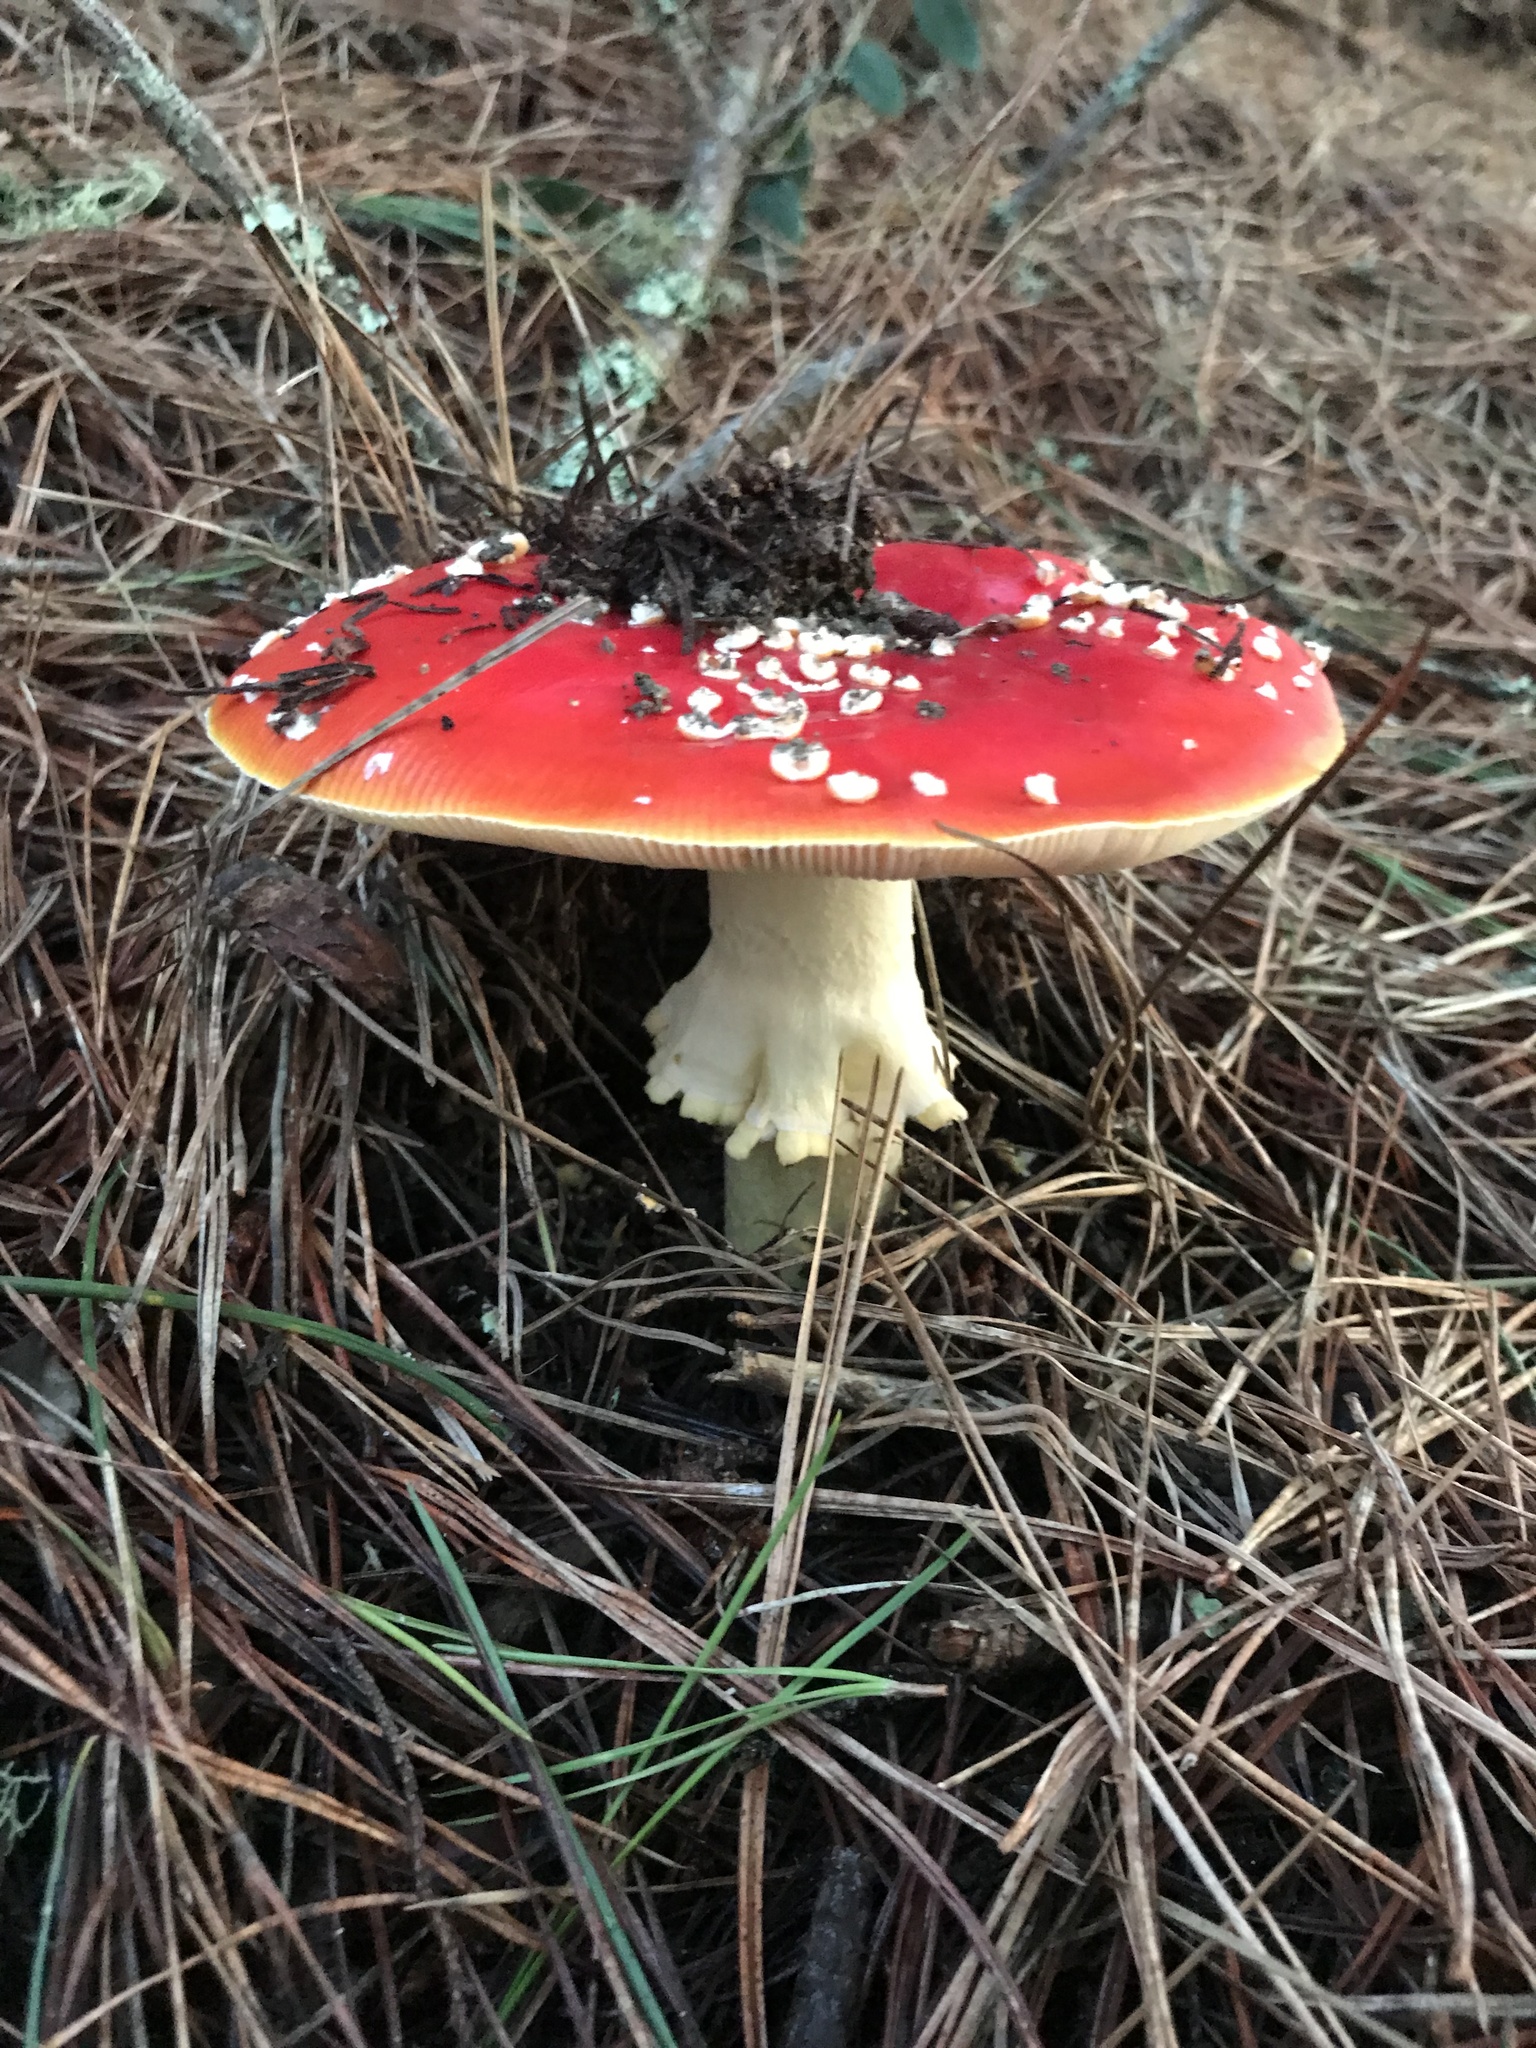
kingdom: Fungi
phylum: Basidiomycota
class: Agaricomycetes
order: Agaricales
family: Amanitaceae
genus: Amanita
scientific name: Amanita muscaria
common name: Fly agaric
